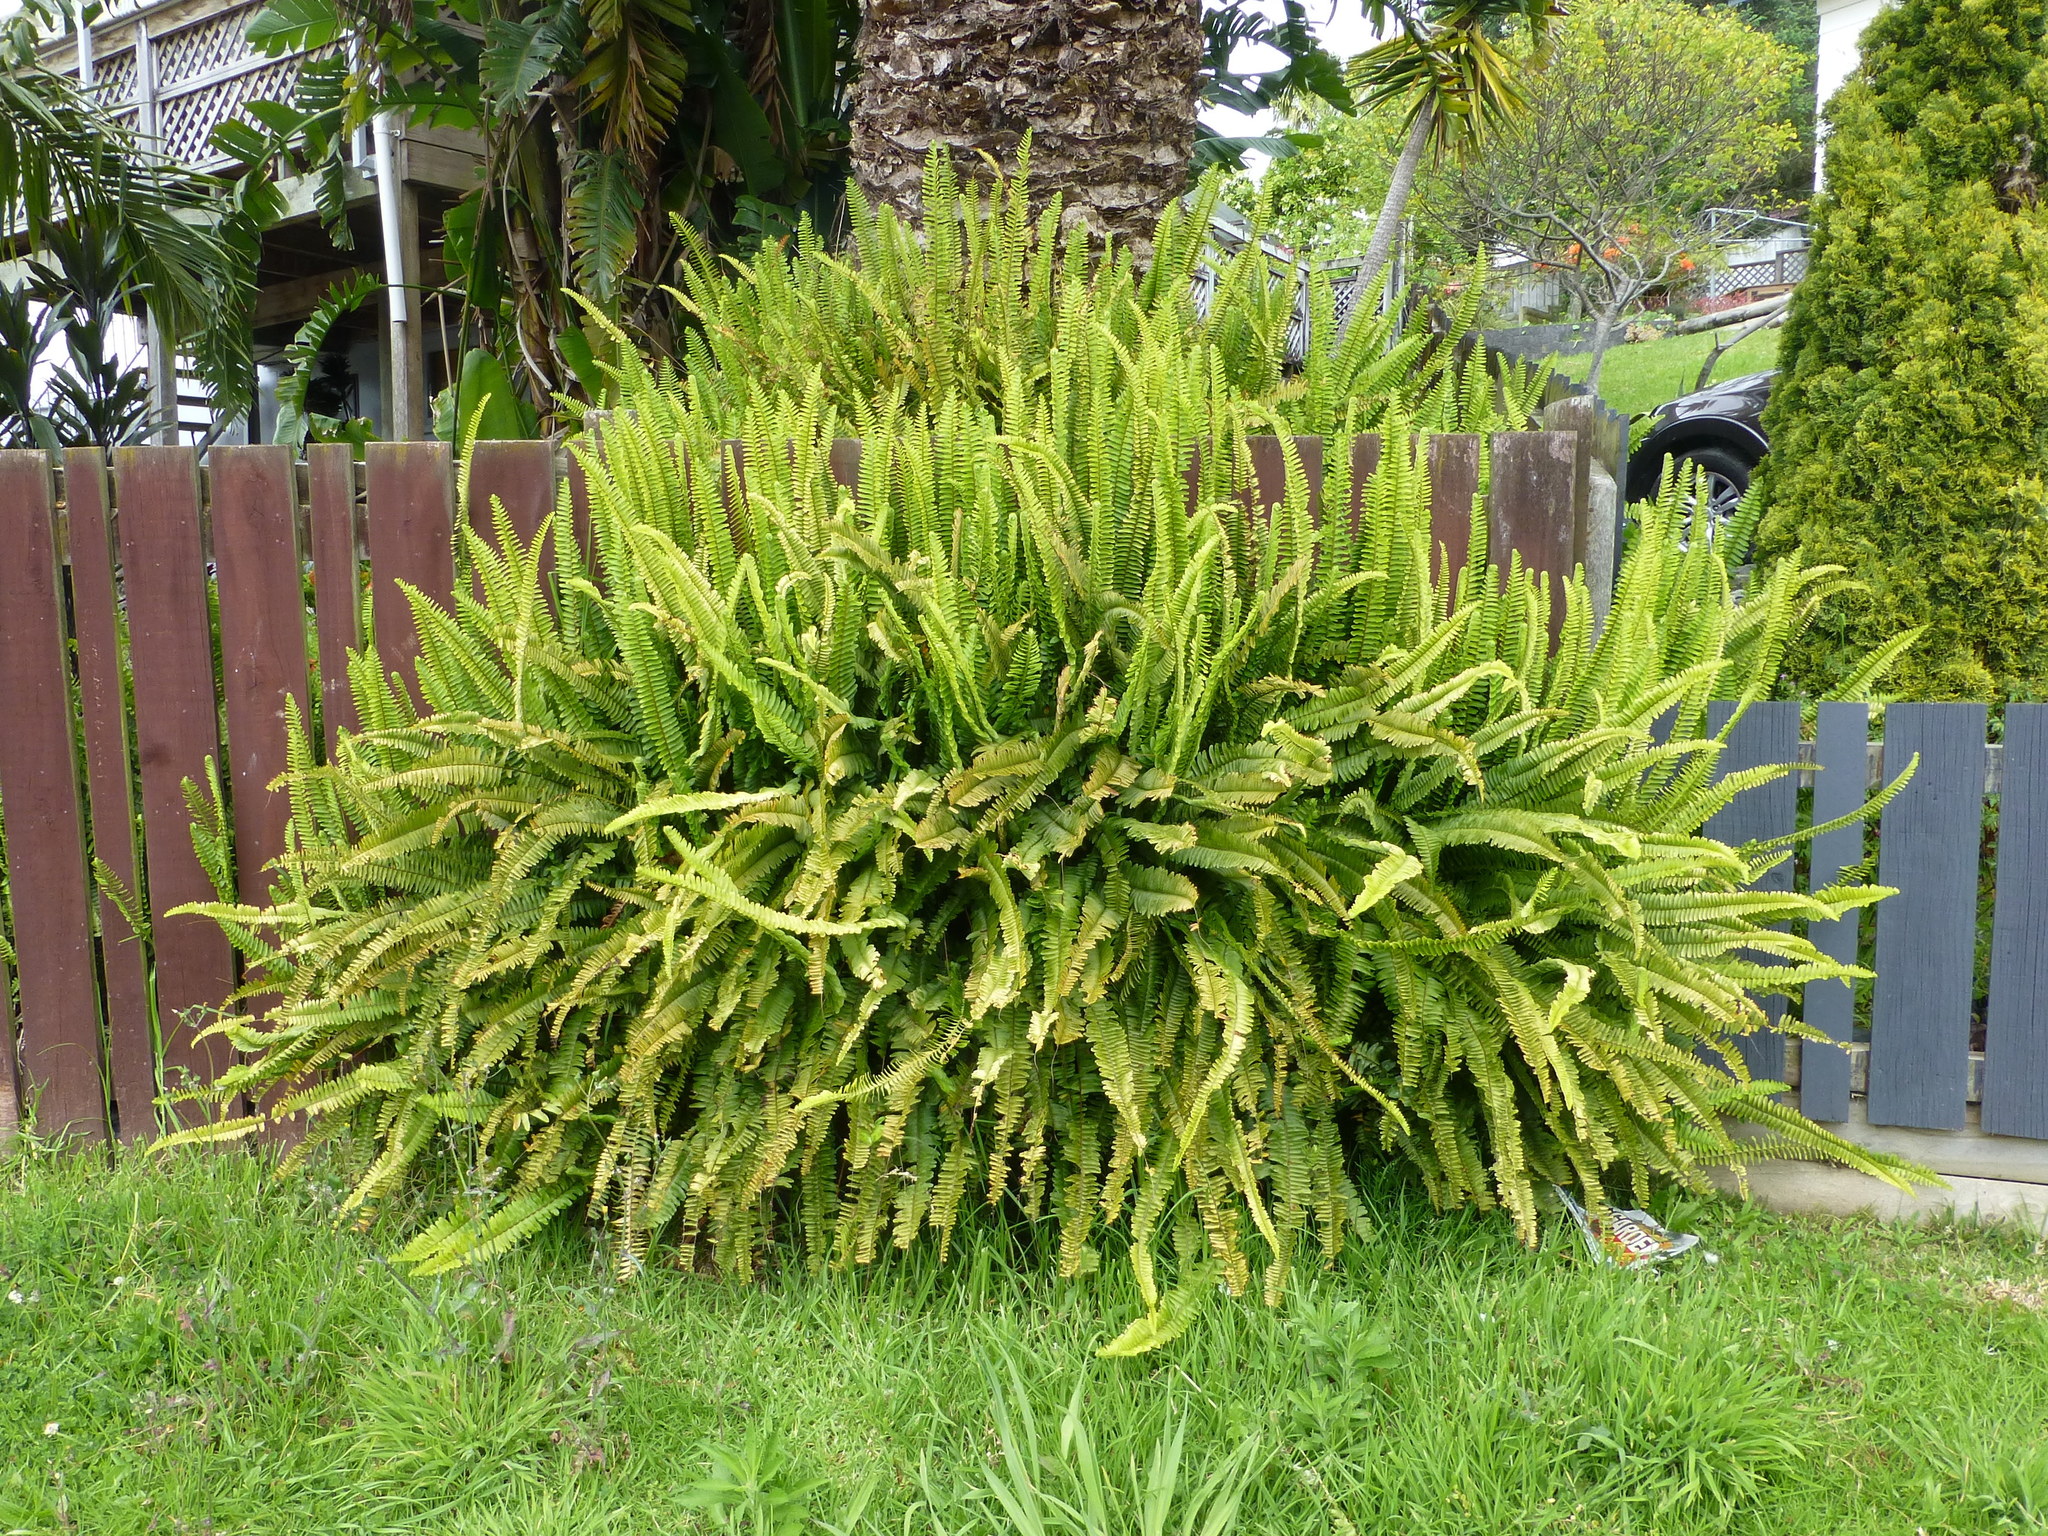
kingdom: Plantae
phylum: Tracheophyta
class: Polypodiopsida
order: Polypodiales
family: Nephrolepidaceae
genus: Nephrolepis
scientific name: Nephrolepis cordifolia
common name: Narrow swordfern
